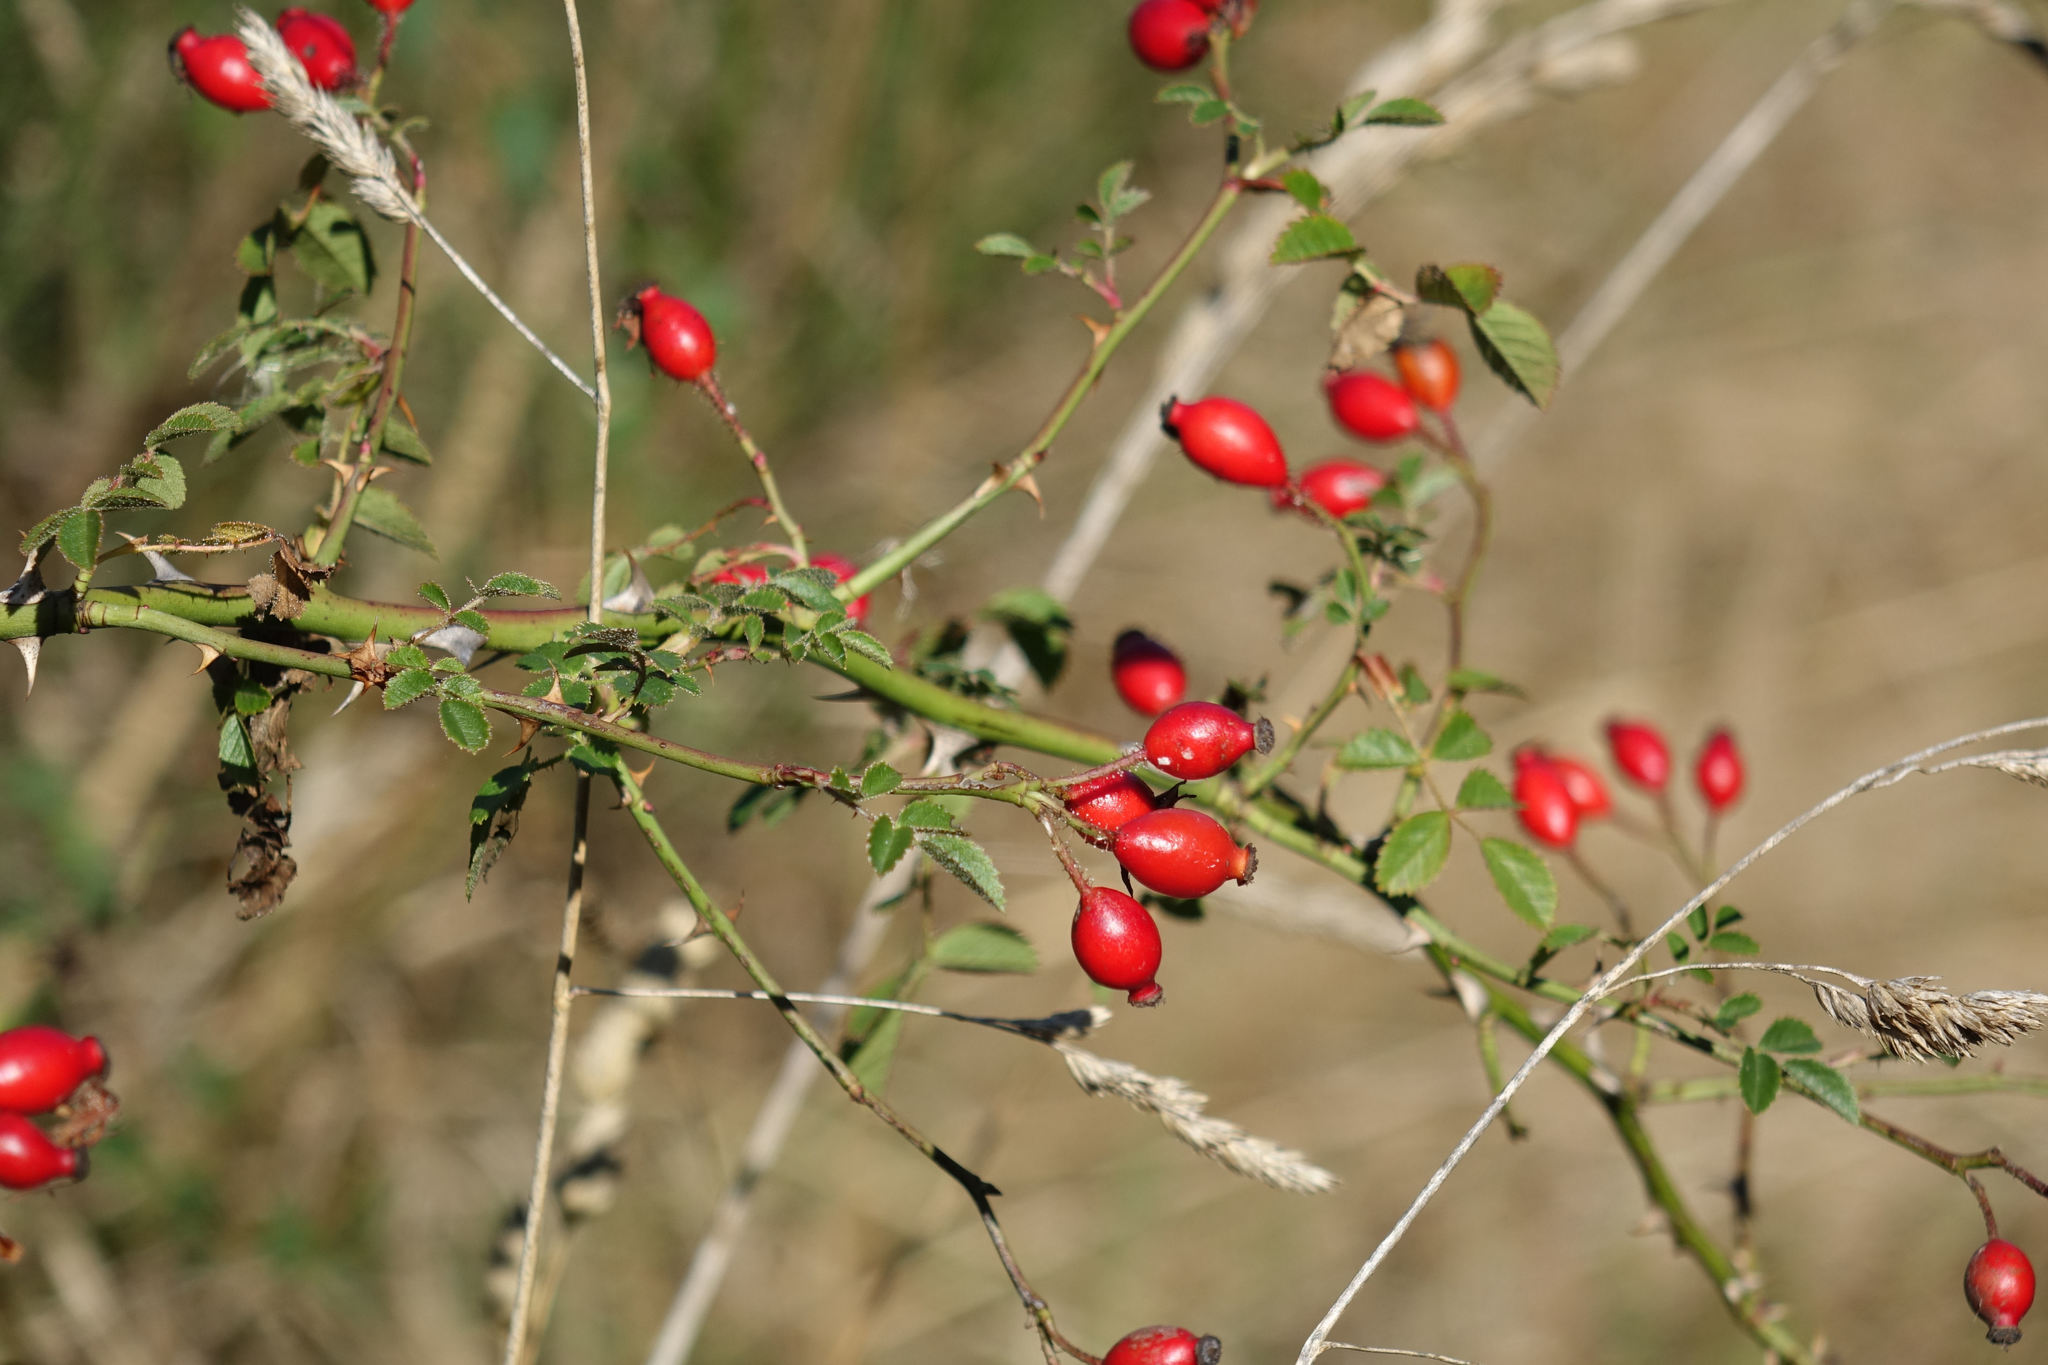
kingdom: Plantae
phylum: Tracheophyta
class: Magnoliopsida
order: Rosales
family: Rosaceae
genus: Rosa
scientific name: Rosa rubiginosa
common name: Sweet-briar
